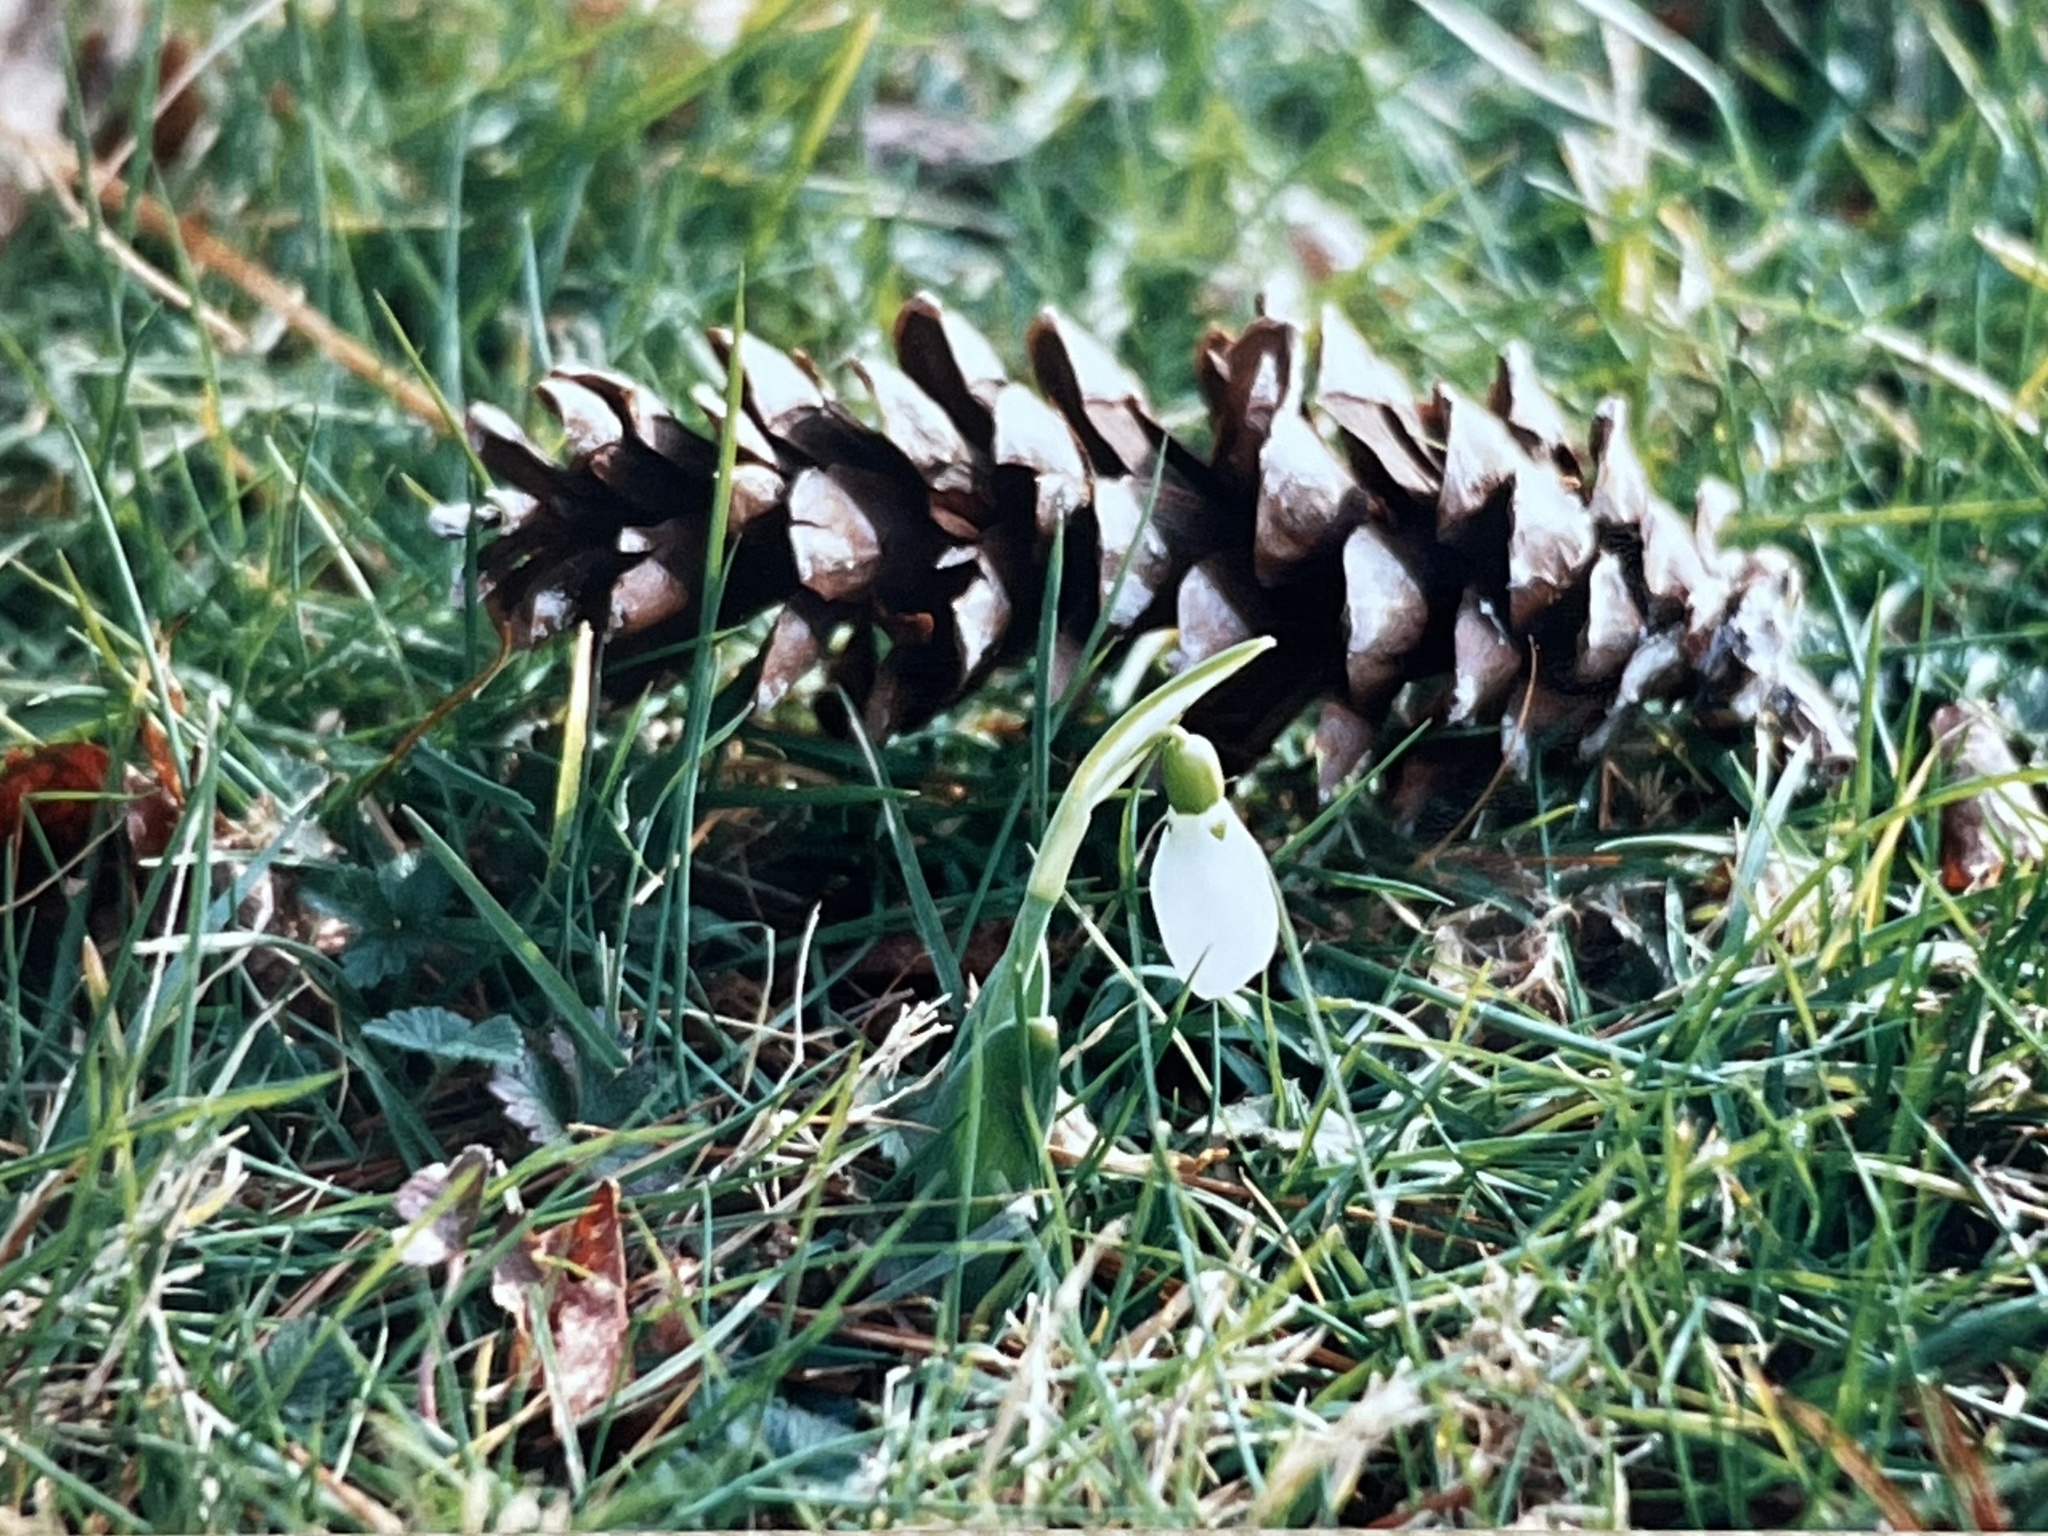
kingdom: Plantae
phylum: Tracheophyta
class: Liliopsida
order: Asparagales
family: Amaryllidaceae
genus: Galanthus
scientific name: Galanthus elwesii
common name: Greater snowdrop
